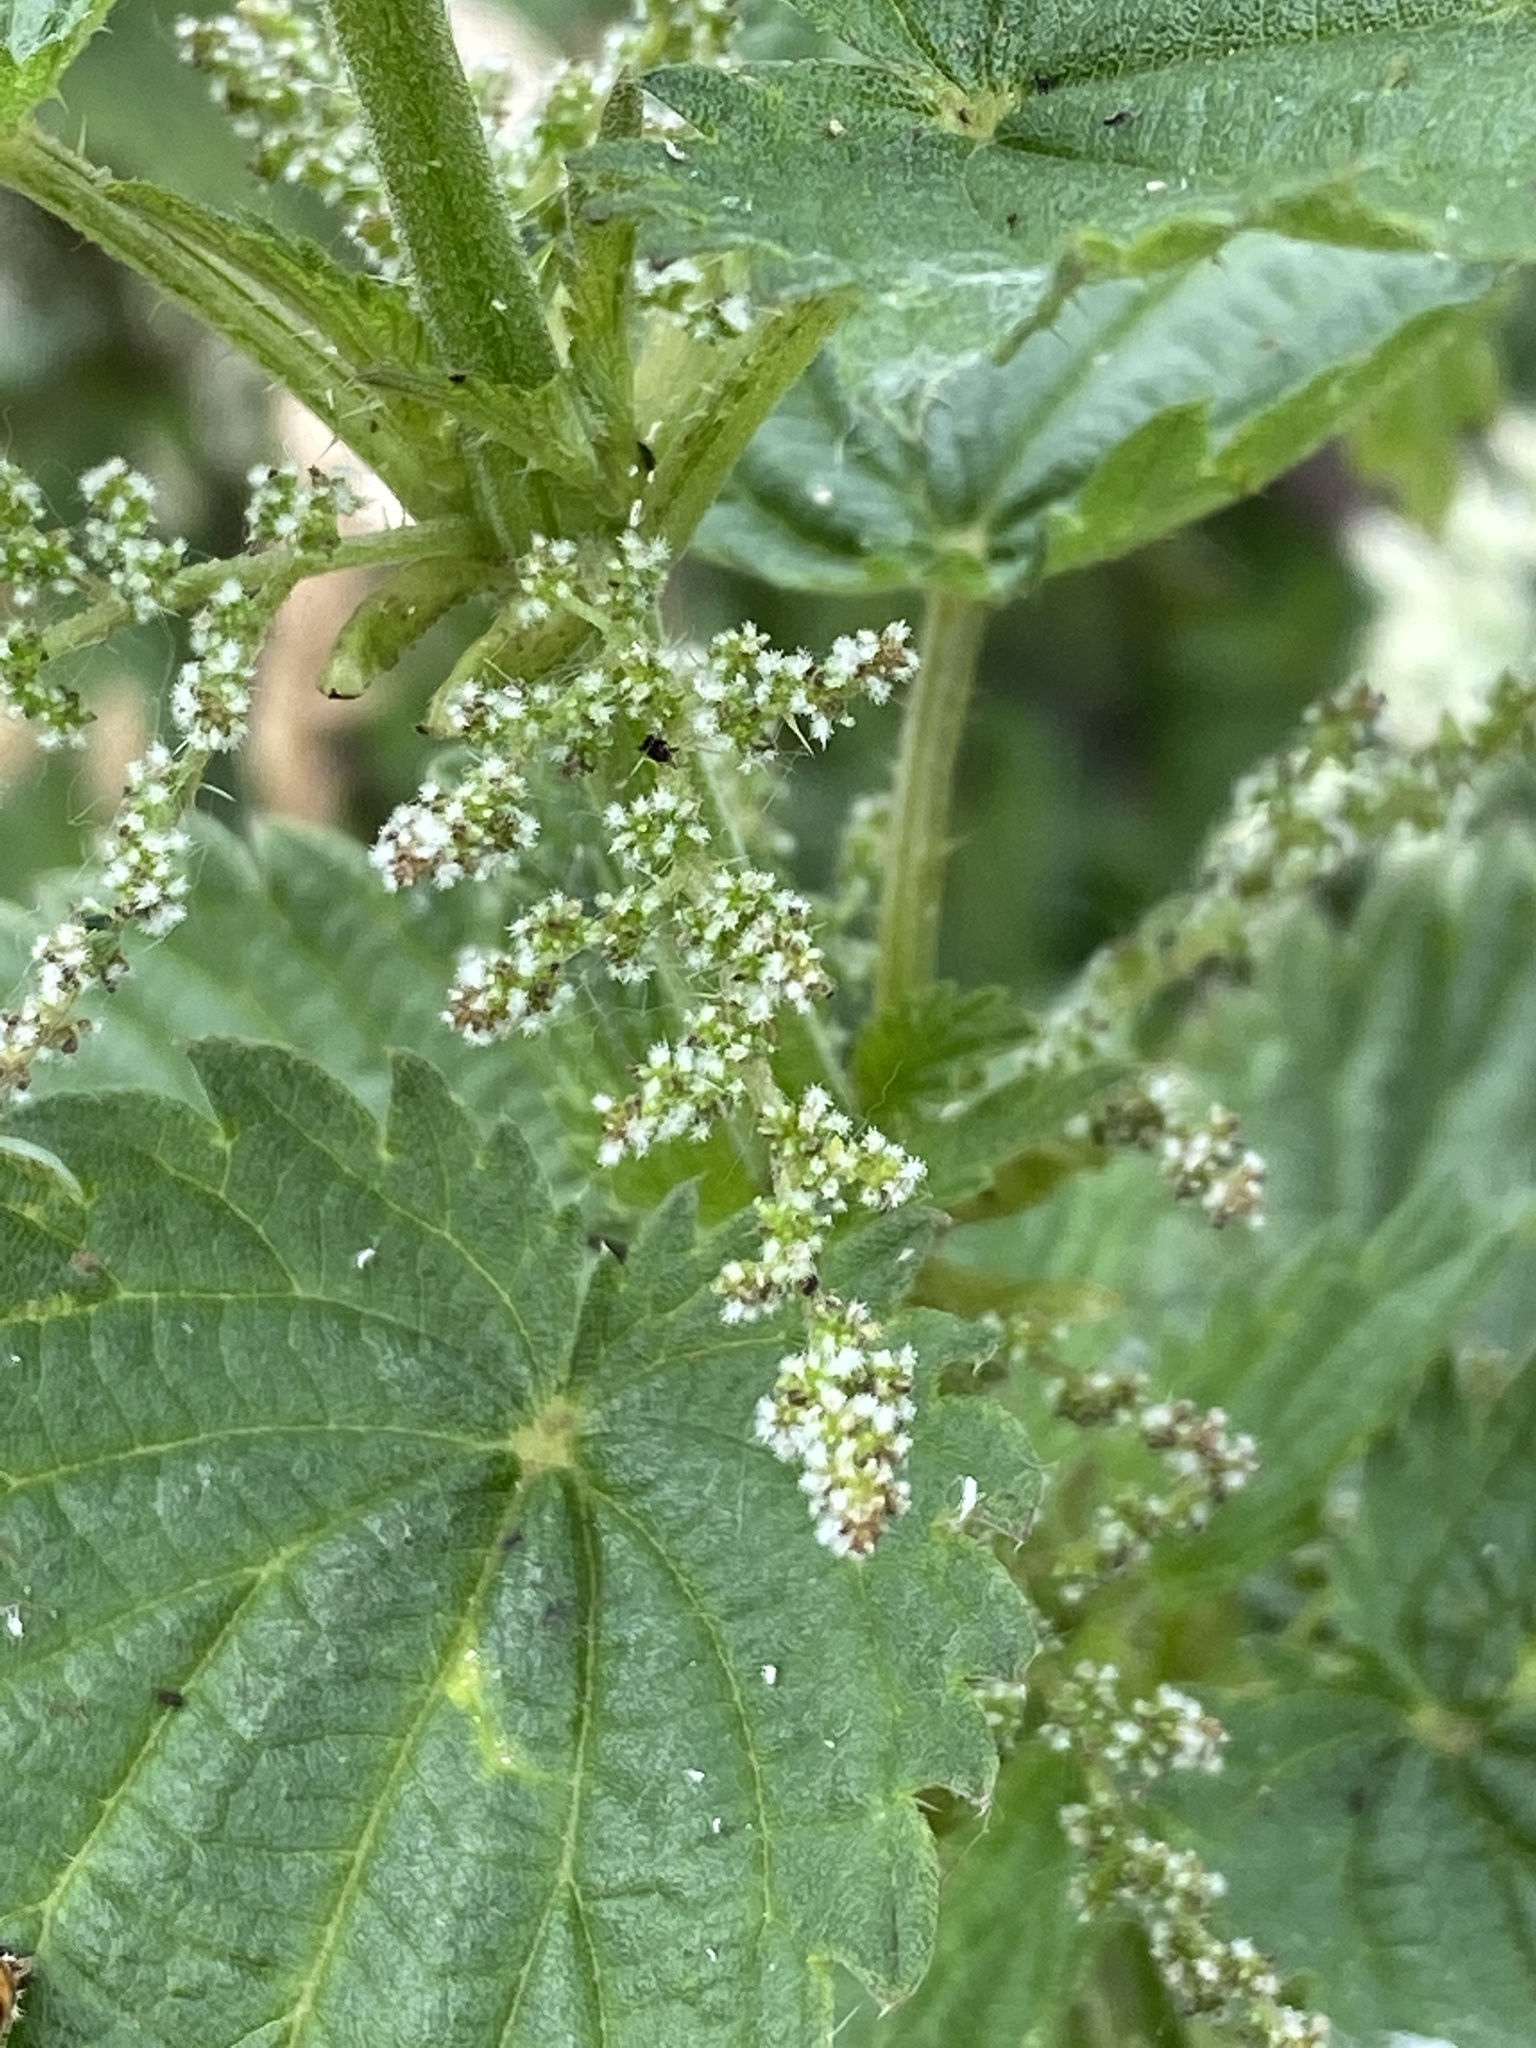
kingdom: Plantae
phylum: Tracheophyta
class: Magnoliopsida
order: Rosales
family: Urticaceae
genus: Urtica
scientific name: Urtica dioica
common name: Common nettle
